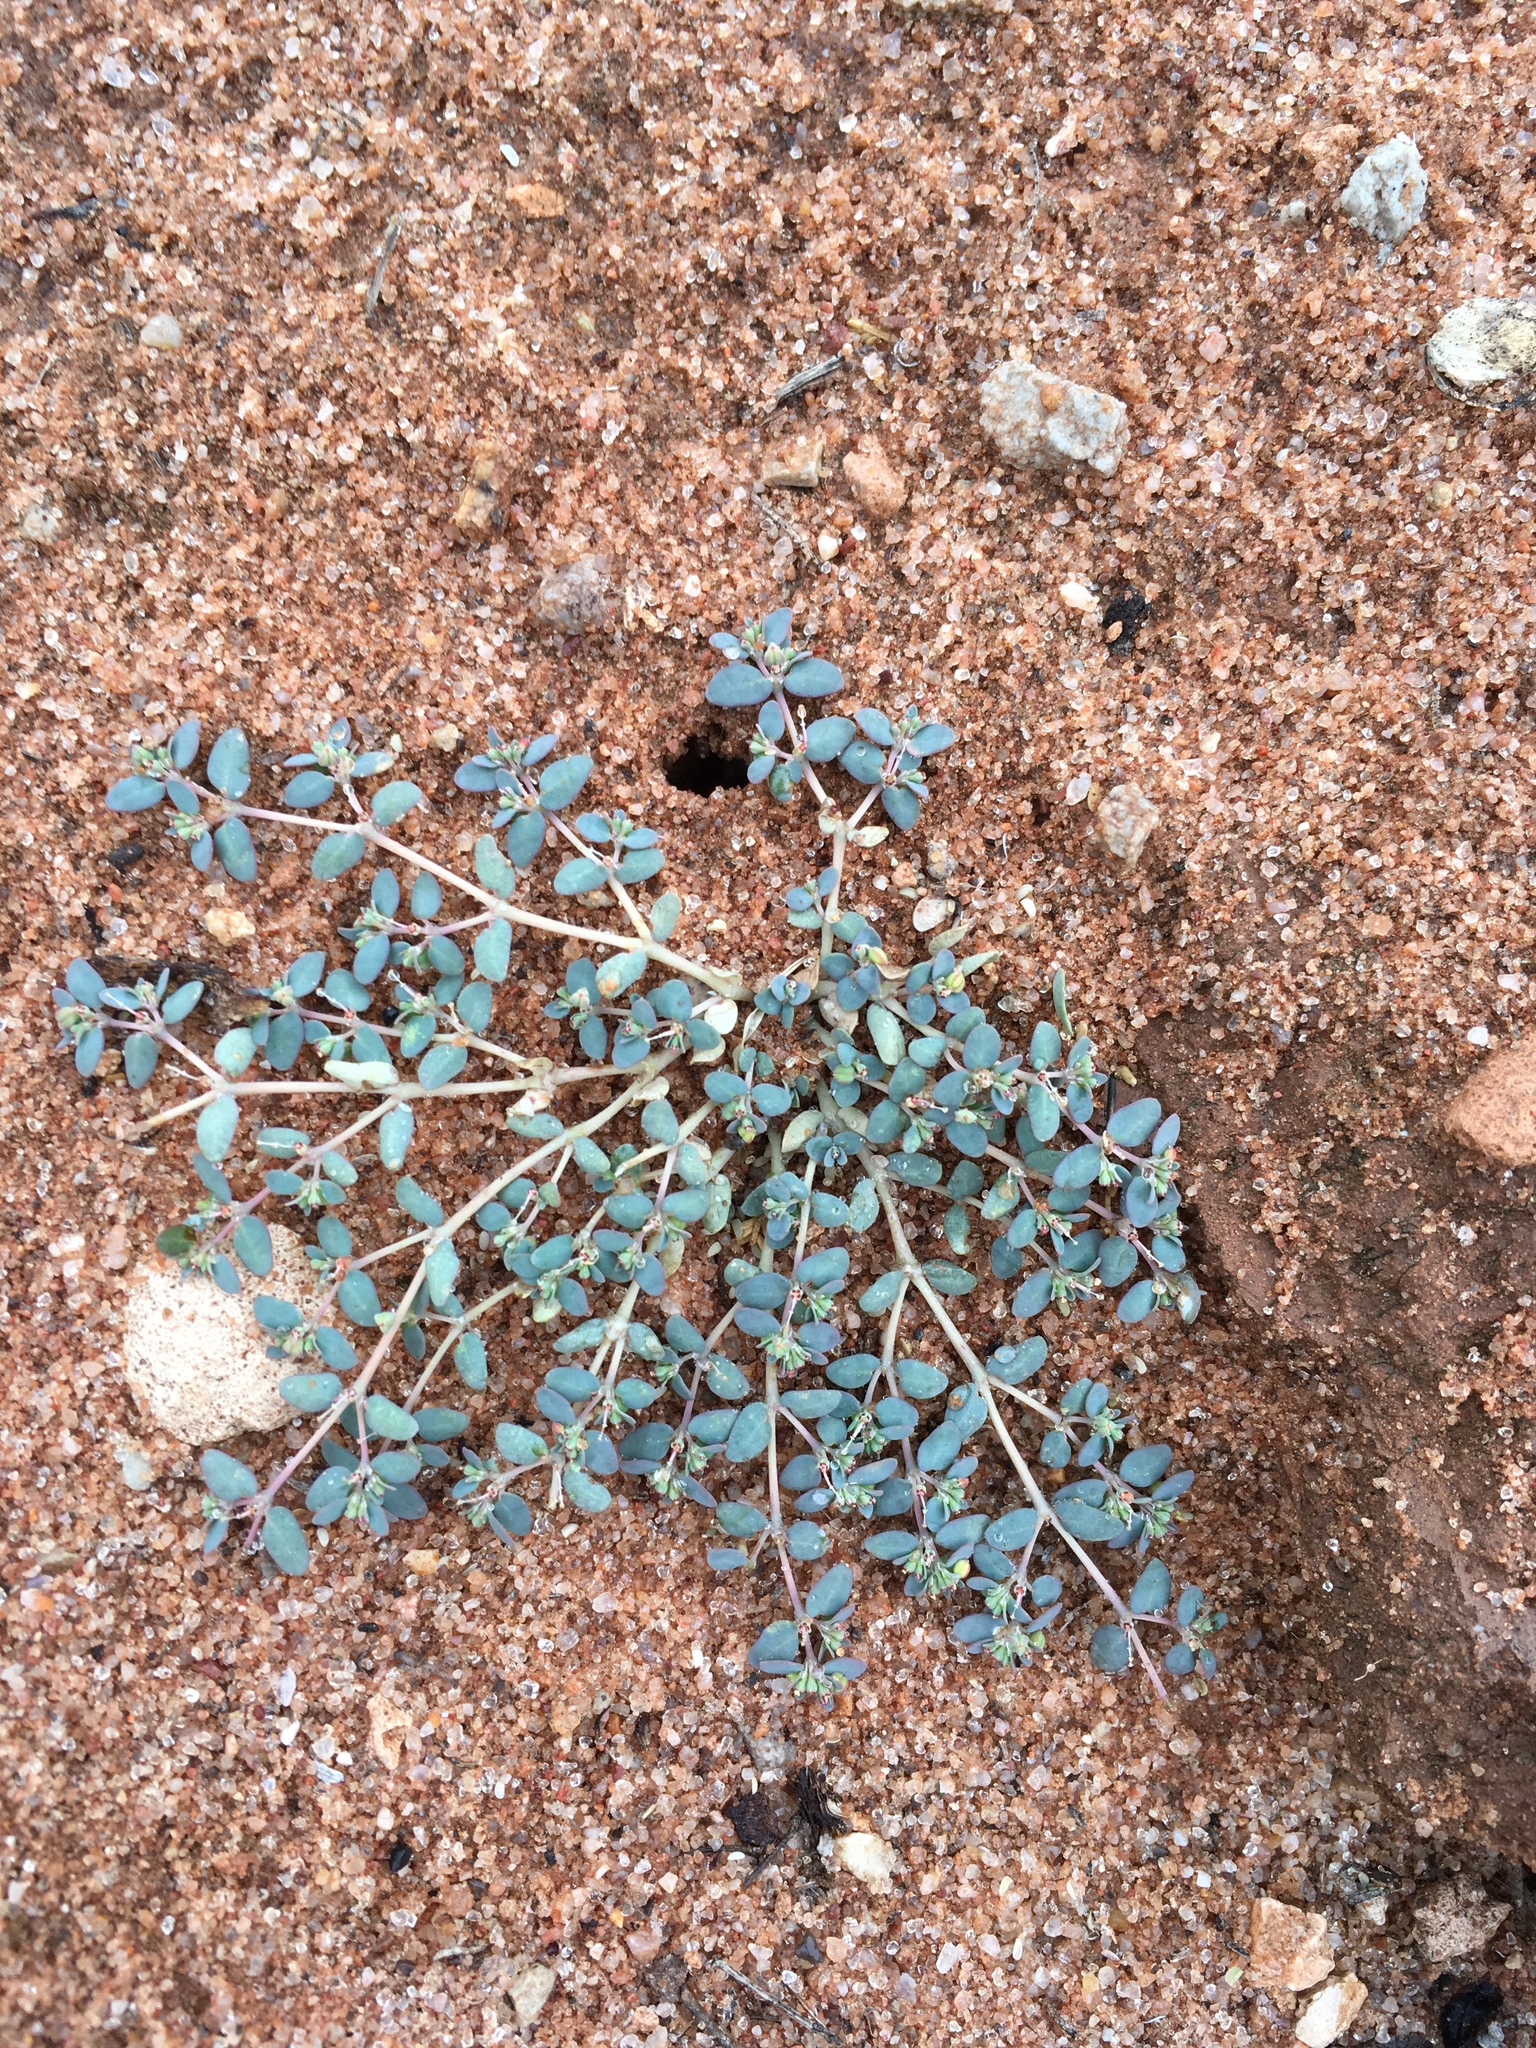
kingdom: Plantae
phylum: Tracheophyta
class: Magnoliopsida
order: Malpighiales
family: Euphorbiaceae
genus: Euphorbia
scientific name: Euphorbia micromera
